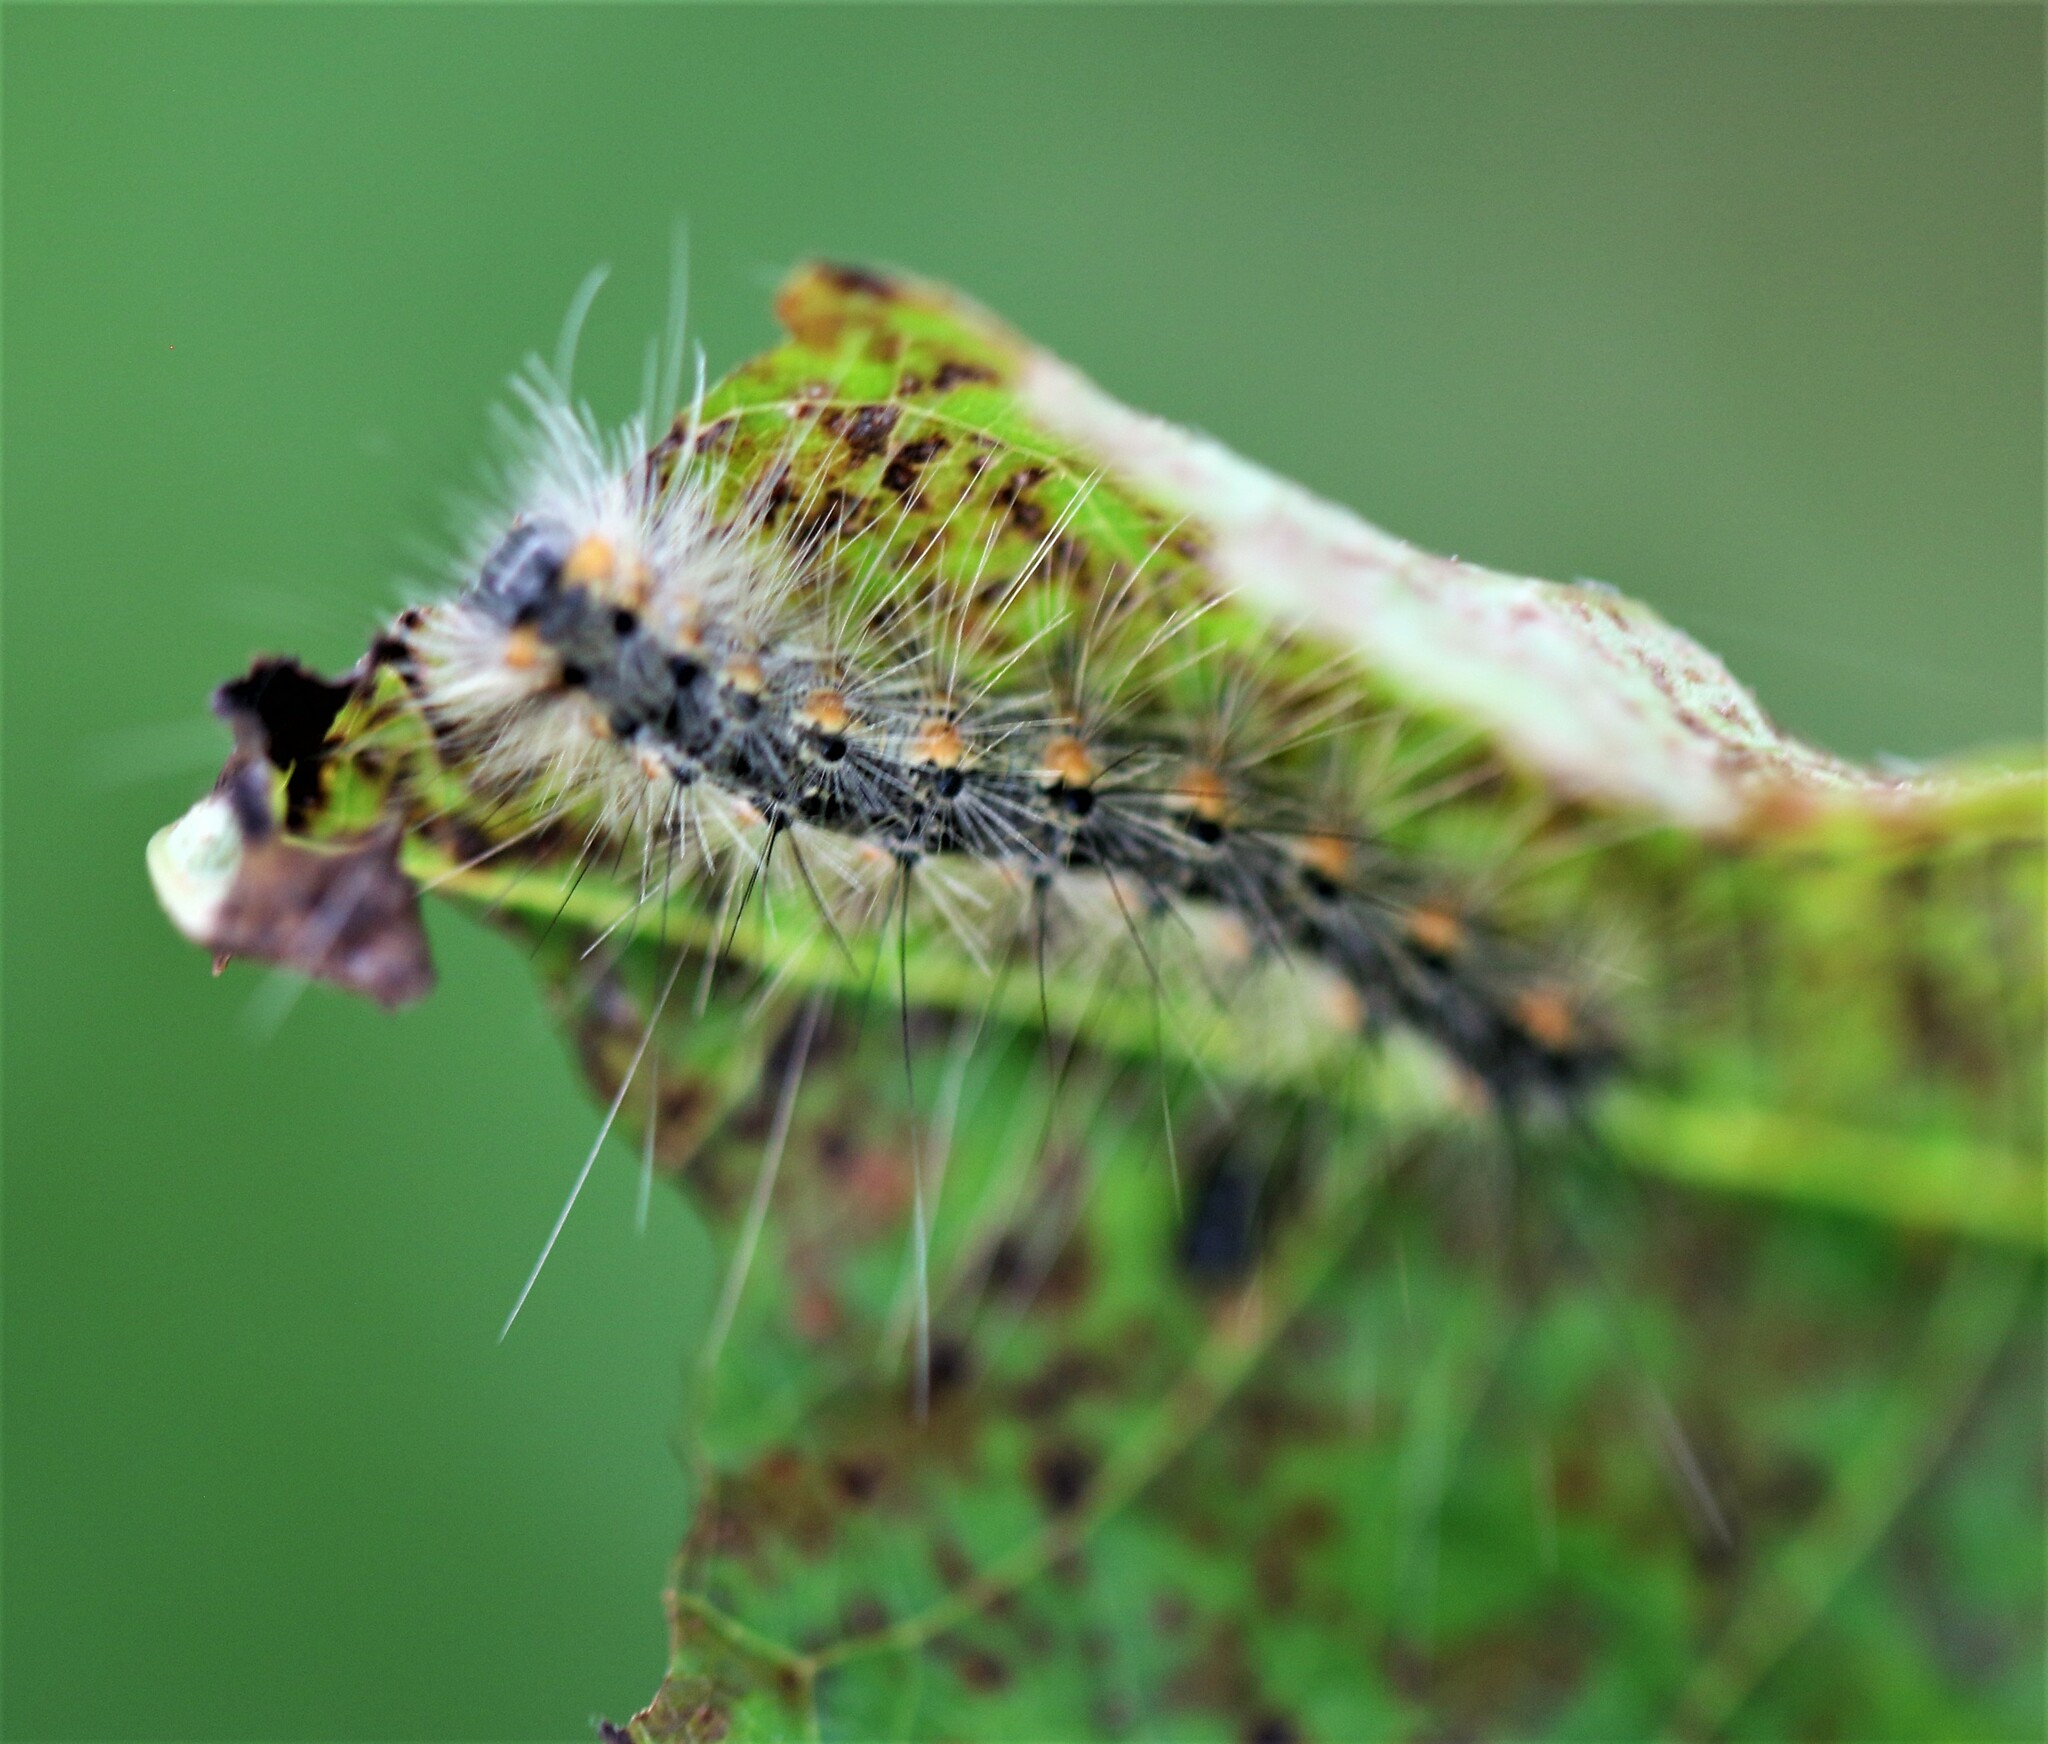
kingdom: Animalia
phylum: Arthropoda
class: Insecta
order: Lepidoptera
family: Erebidae
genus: Hyphantria
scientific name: Hyphantria cunea
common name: American white moth
